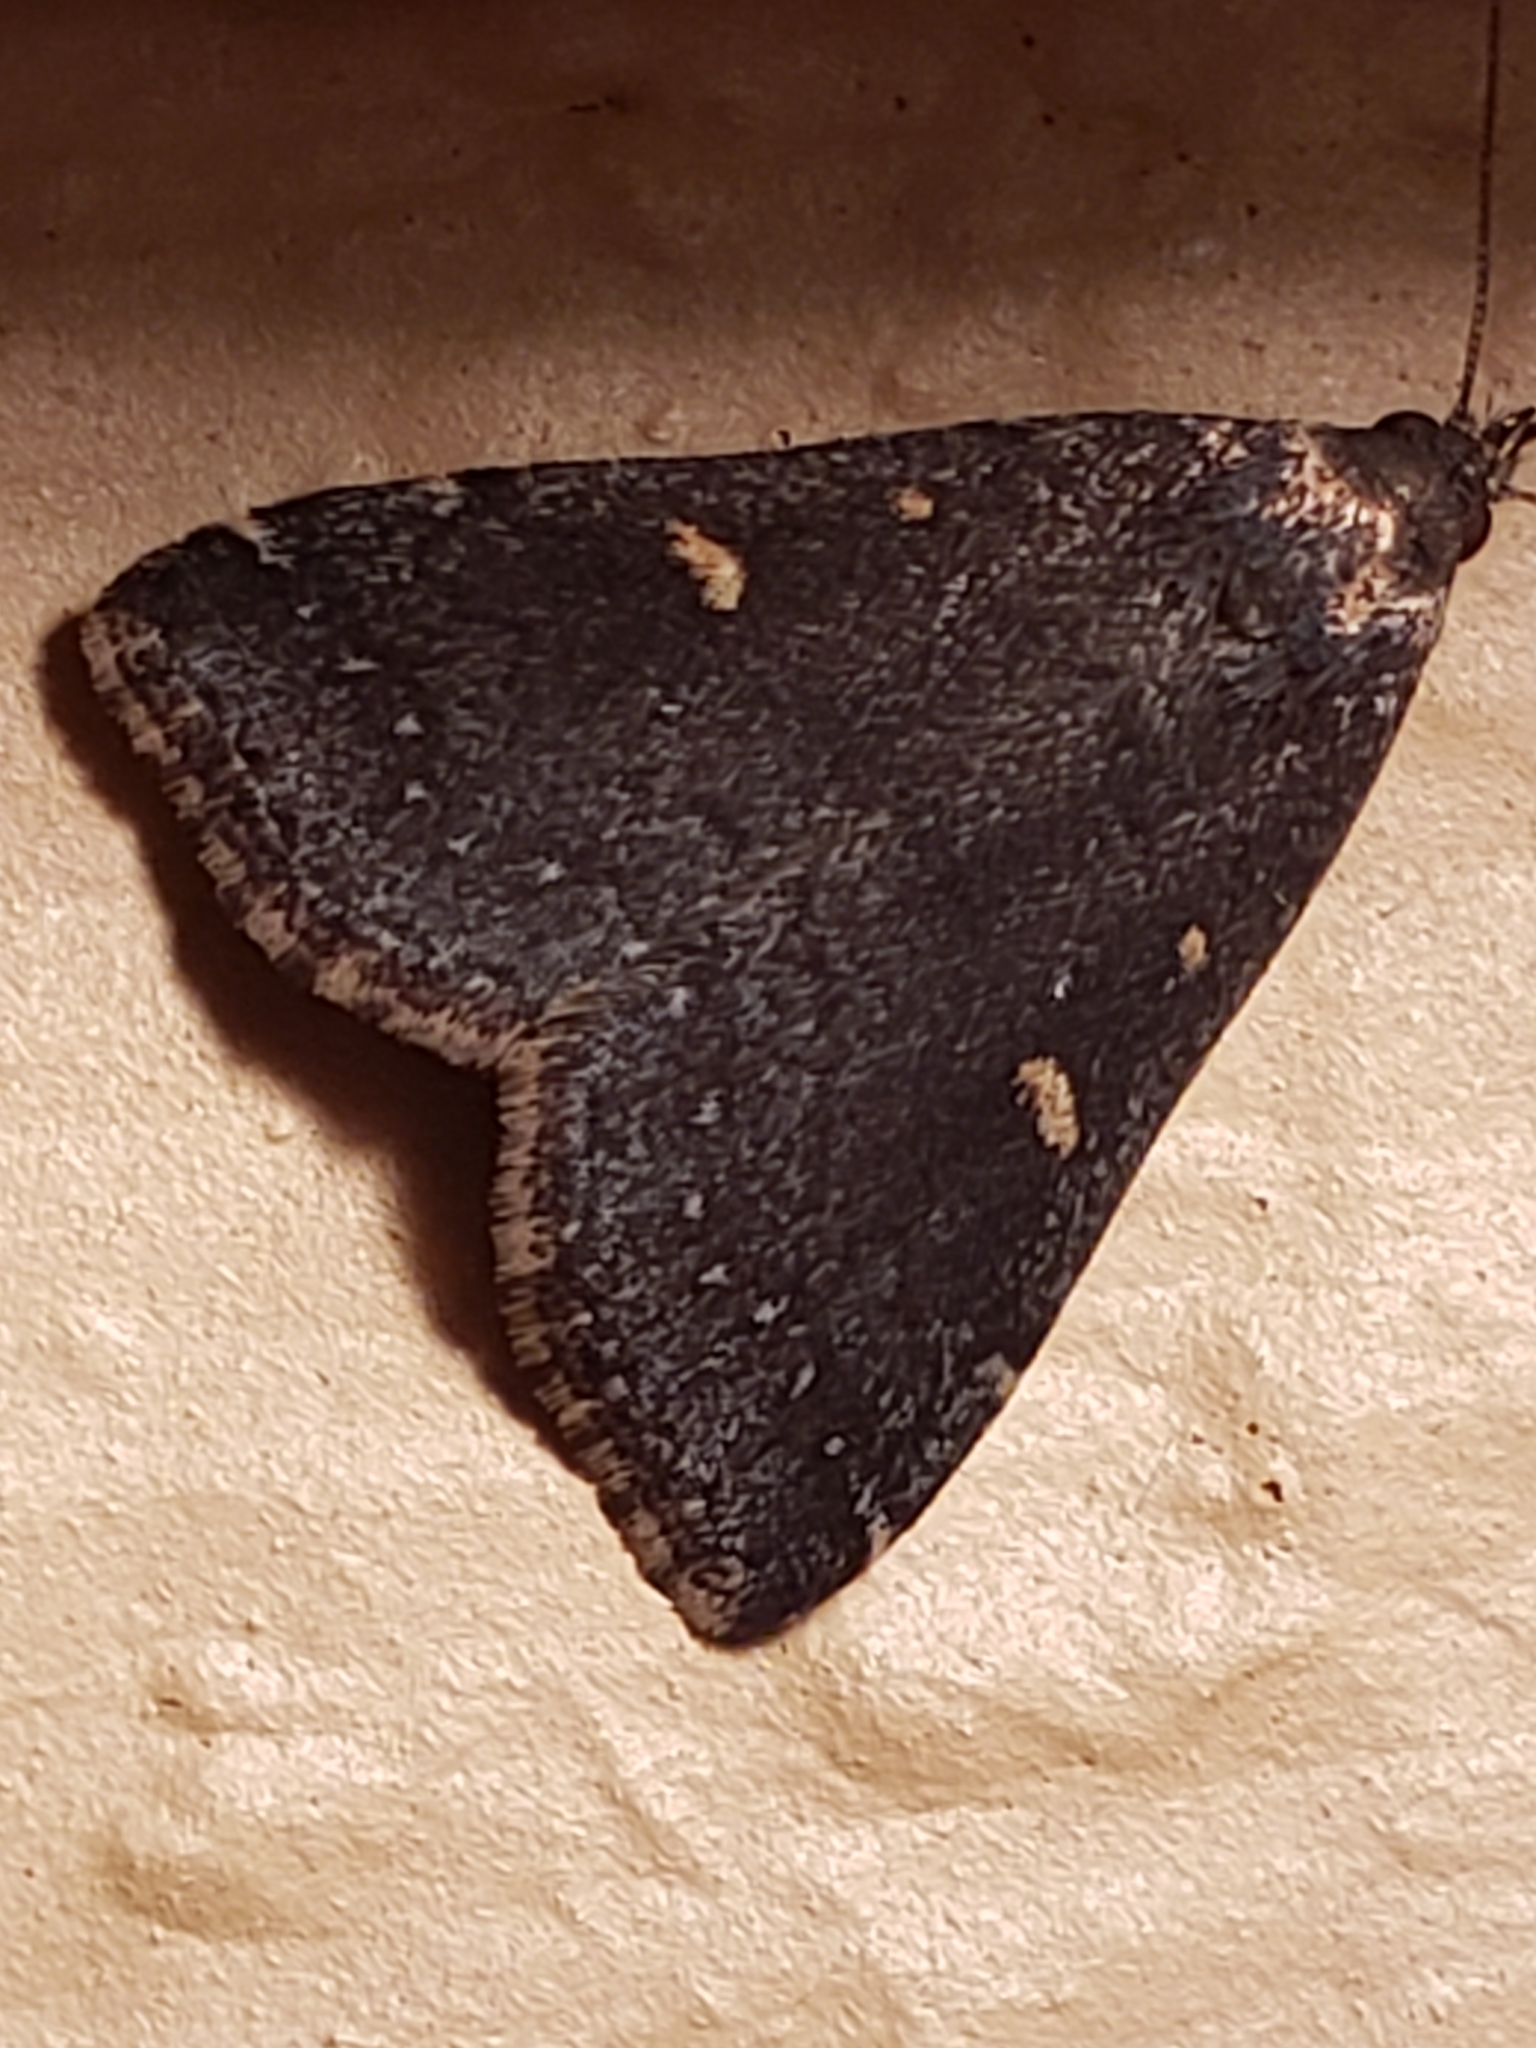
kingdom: Animalia
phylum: Arthropoda
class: Insecta
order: Lepidoptera
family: Erebidae
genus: Tetanolita
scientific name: Tetanolita mynesalis
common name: Smoky tetanolita moth
